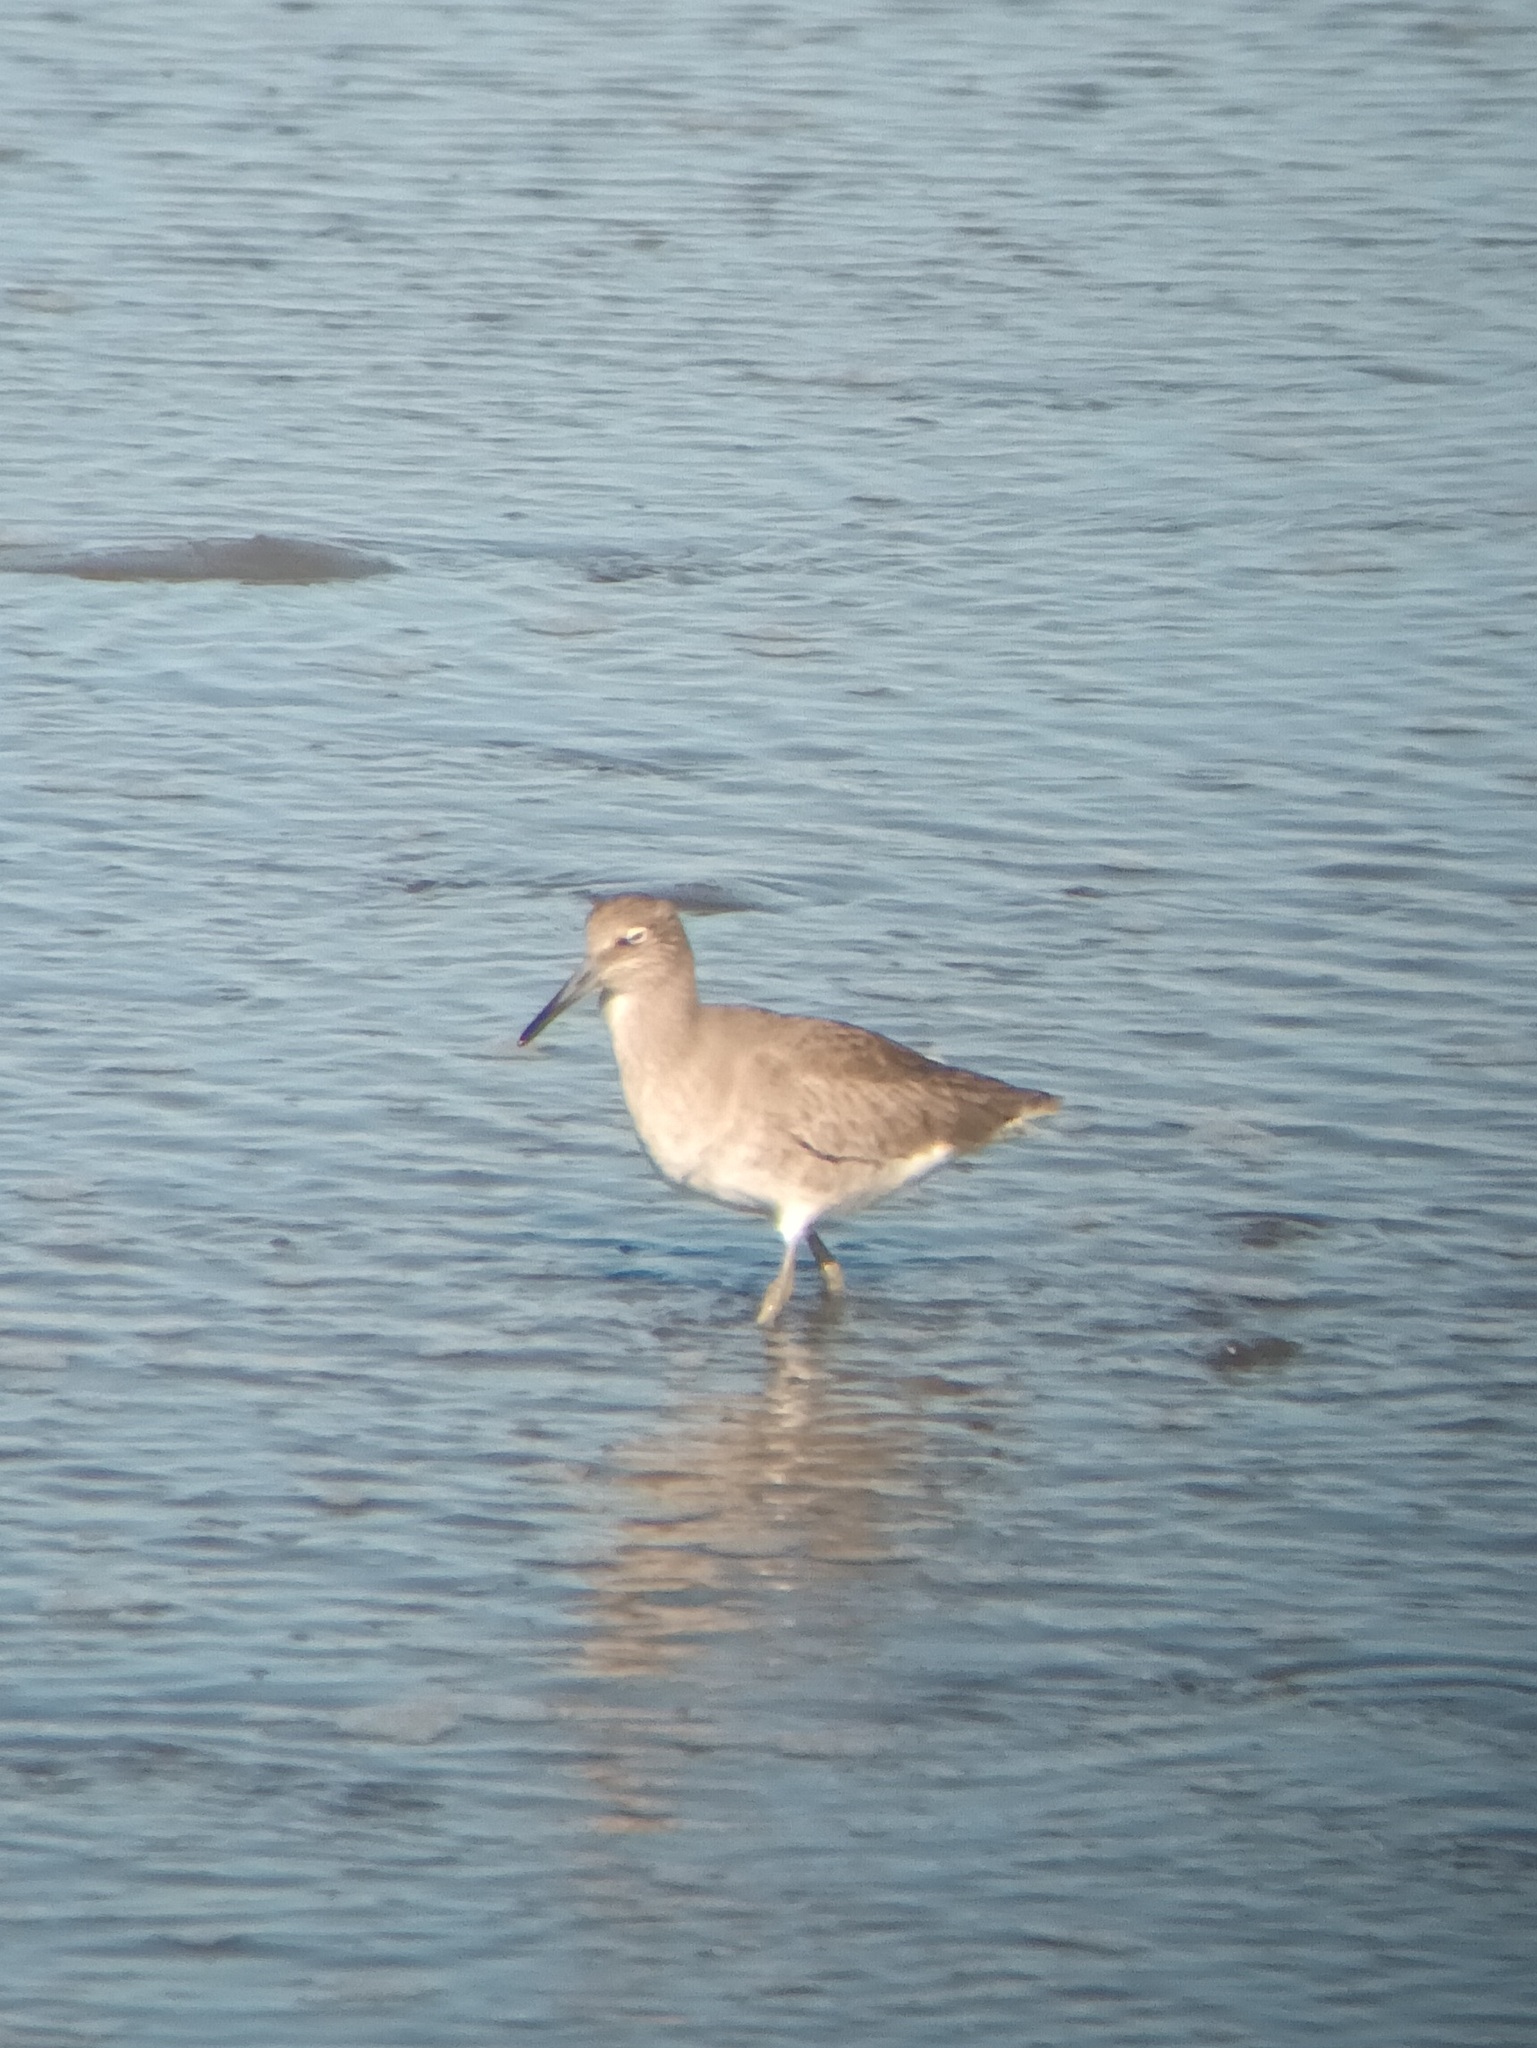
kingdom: Animalia
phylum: Chordata
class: Aves
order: Charadriiformes
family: Scolopacidae
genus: Tringa
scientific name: Tringa semipalmata
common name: Willet
